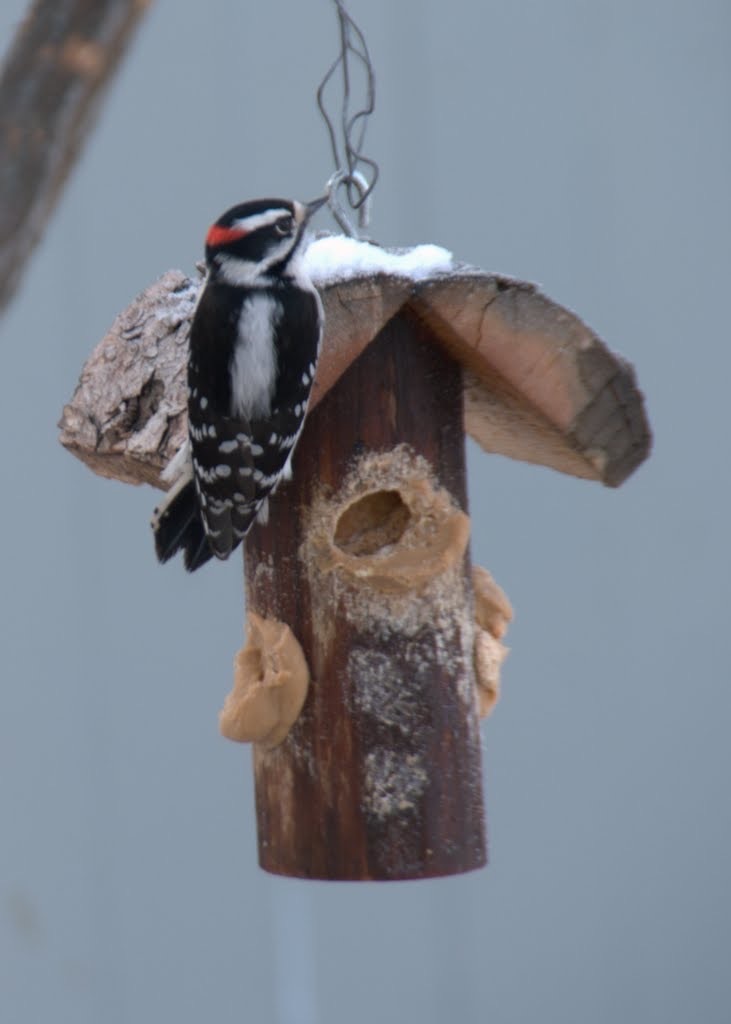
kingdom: Animalia
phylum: Chordata
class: Aves
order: Piciformes
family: Picidae
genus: Dryobates
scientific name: Dryobates pubescens
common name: Downy woodpecker
